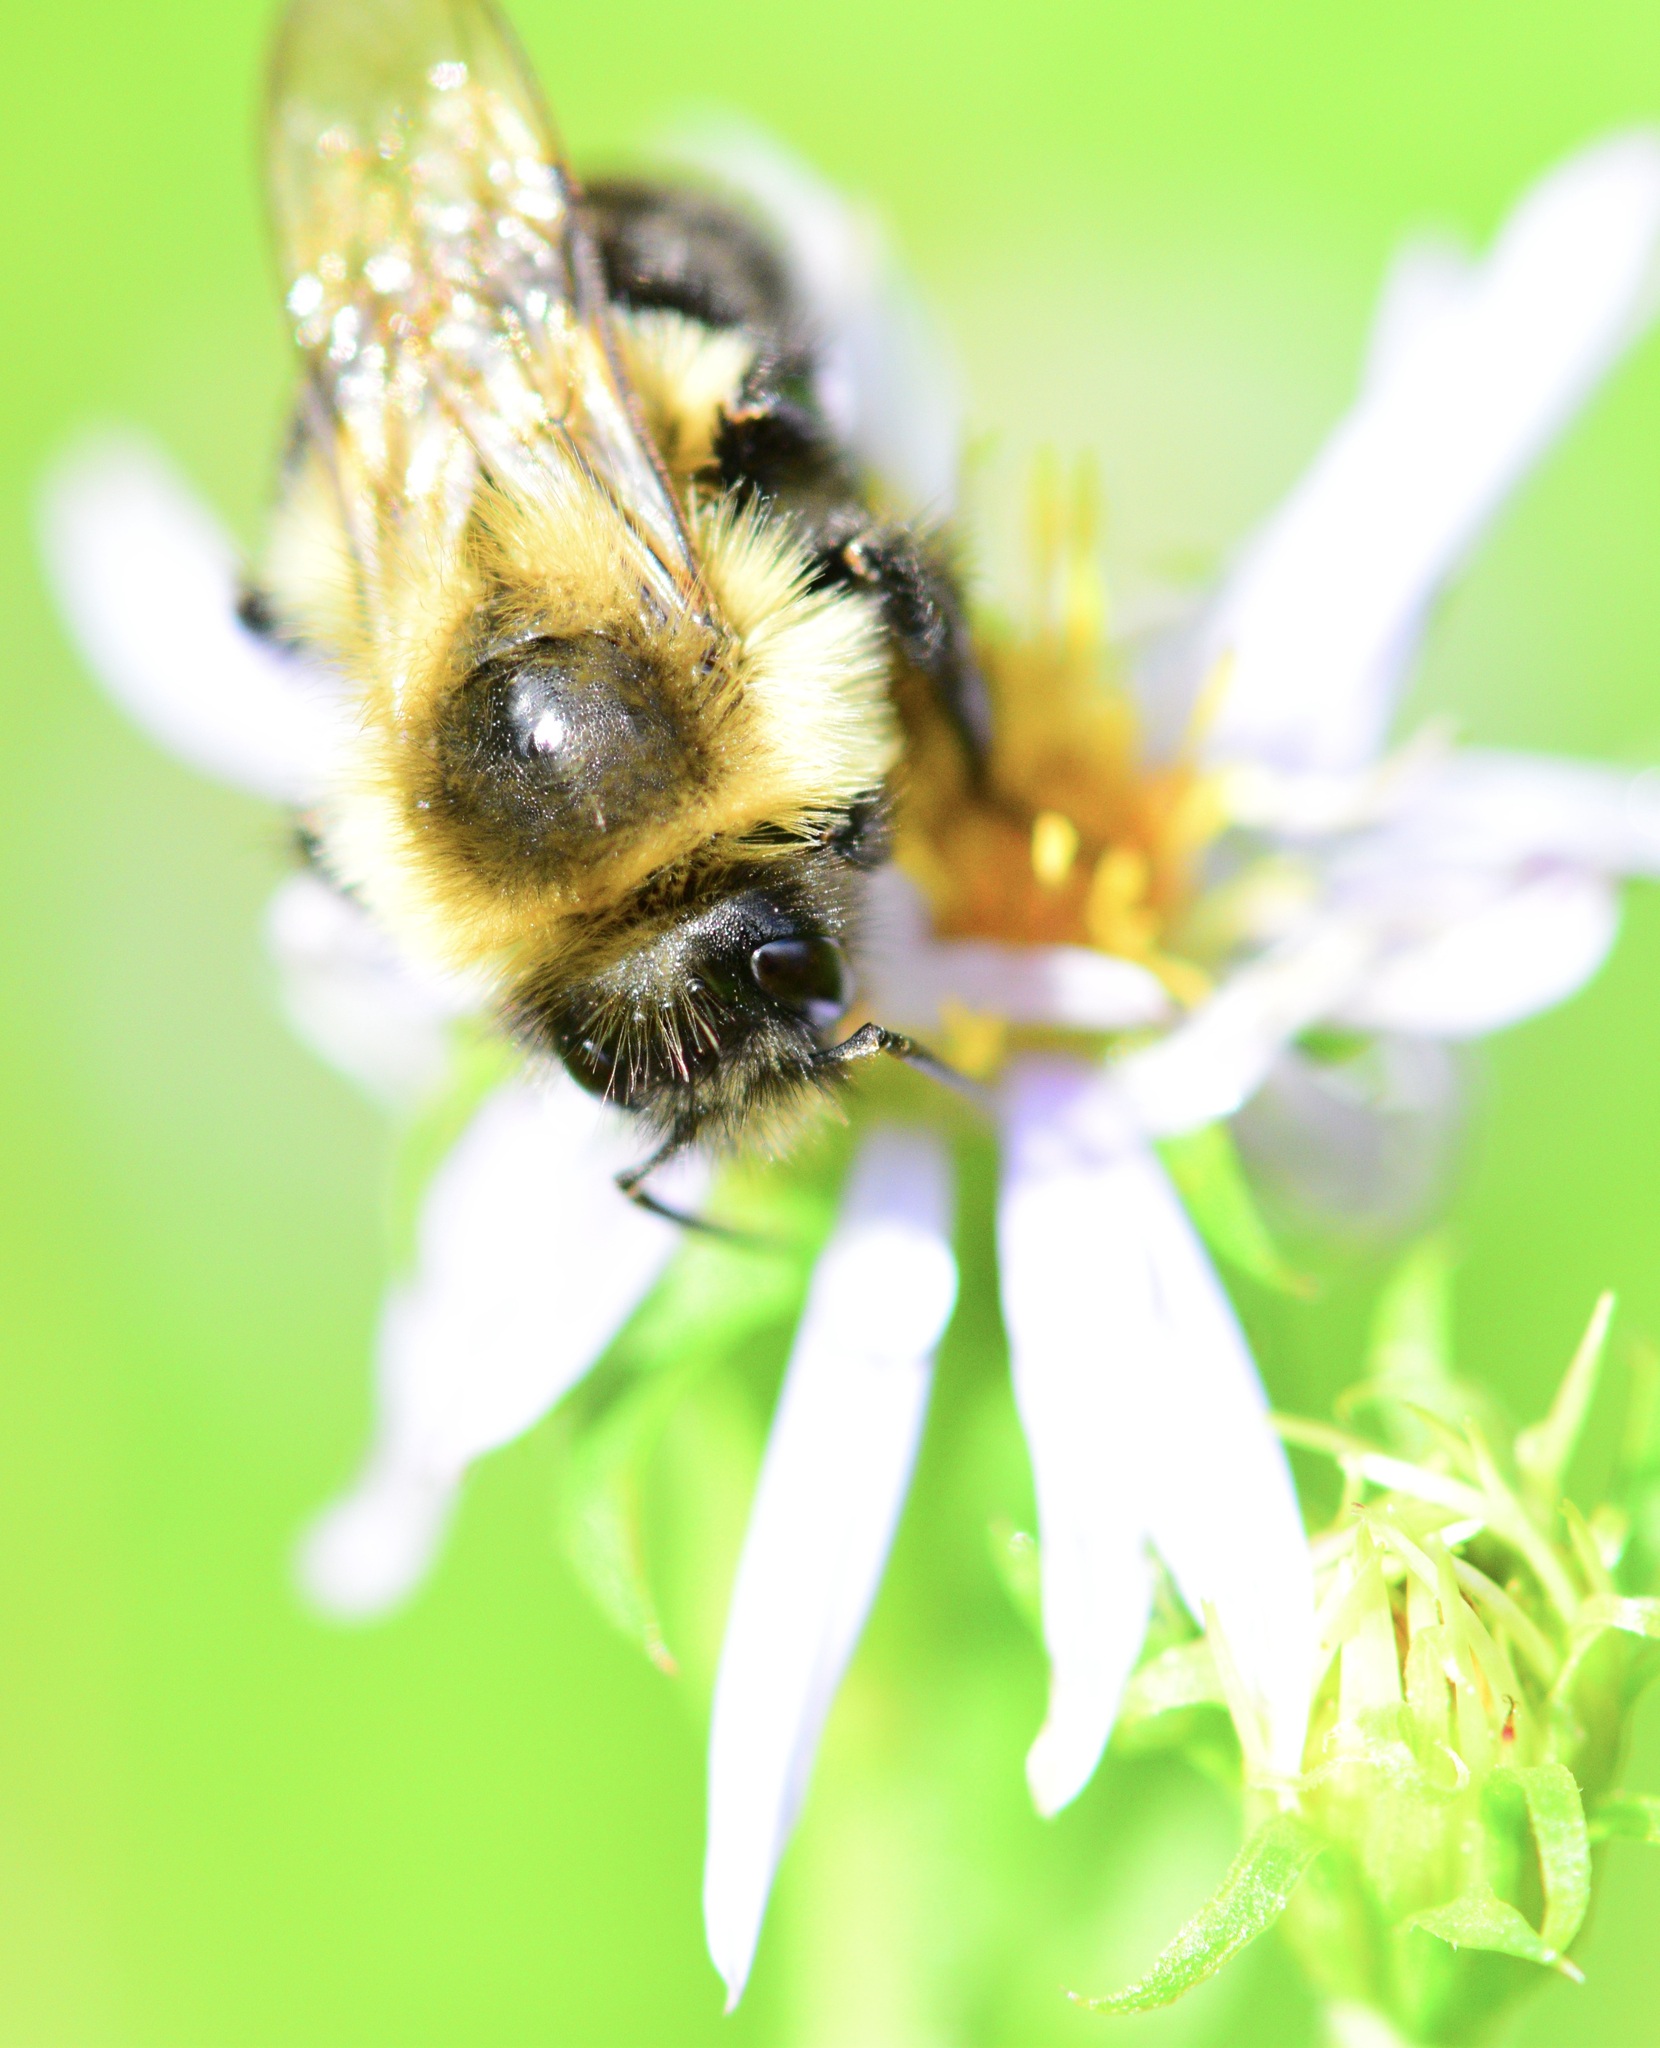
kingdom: Animalia
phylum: Arthropoda
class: Insecta
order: Hymenoptera
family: Apidae
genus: Bombus
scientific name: Bombus impatiens
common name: Common eastern bumble bee
